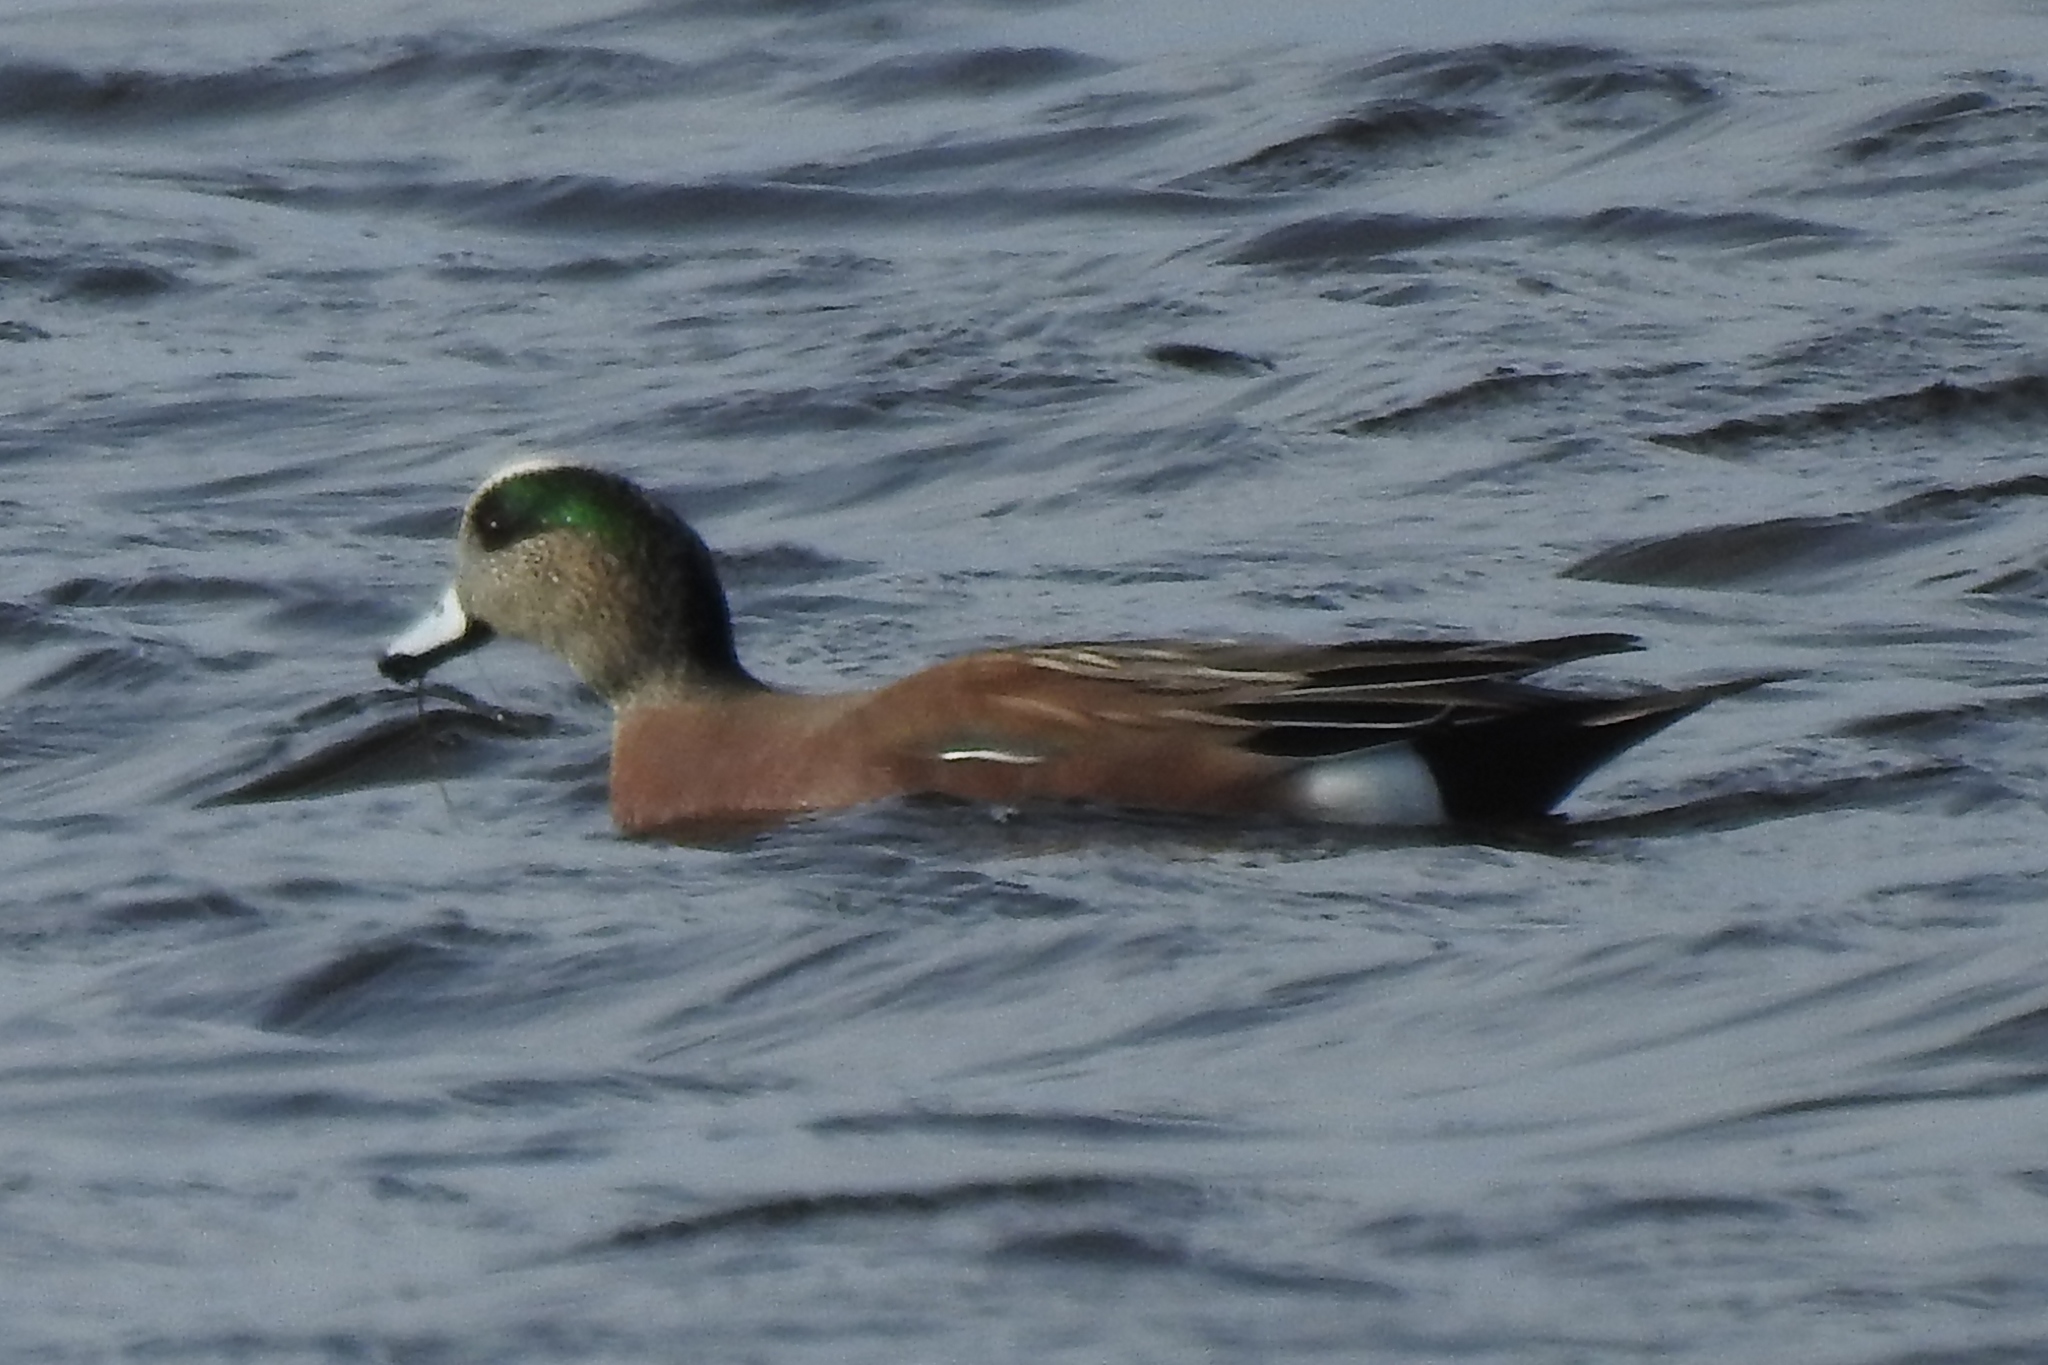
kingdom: Animalia
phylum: Chordata
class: Aves
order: Anseriformes
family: Anatidae
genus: Mareca
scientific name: Mareca americana
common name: American wigeon
